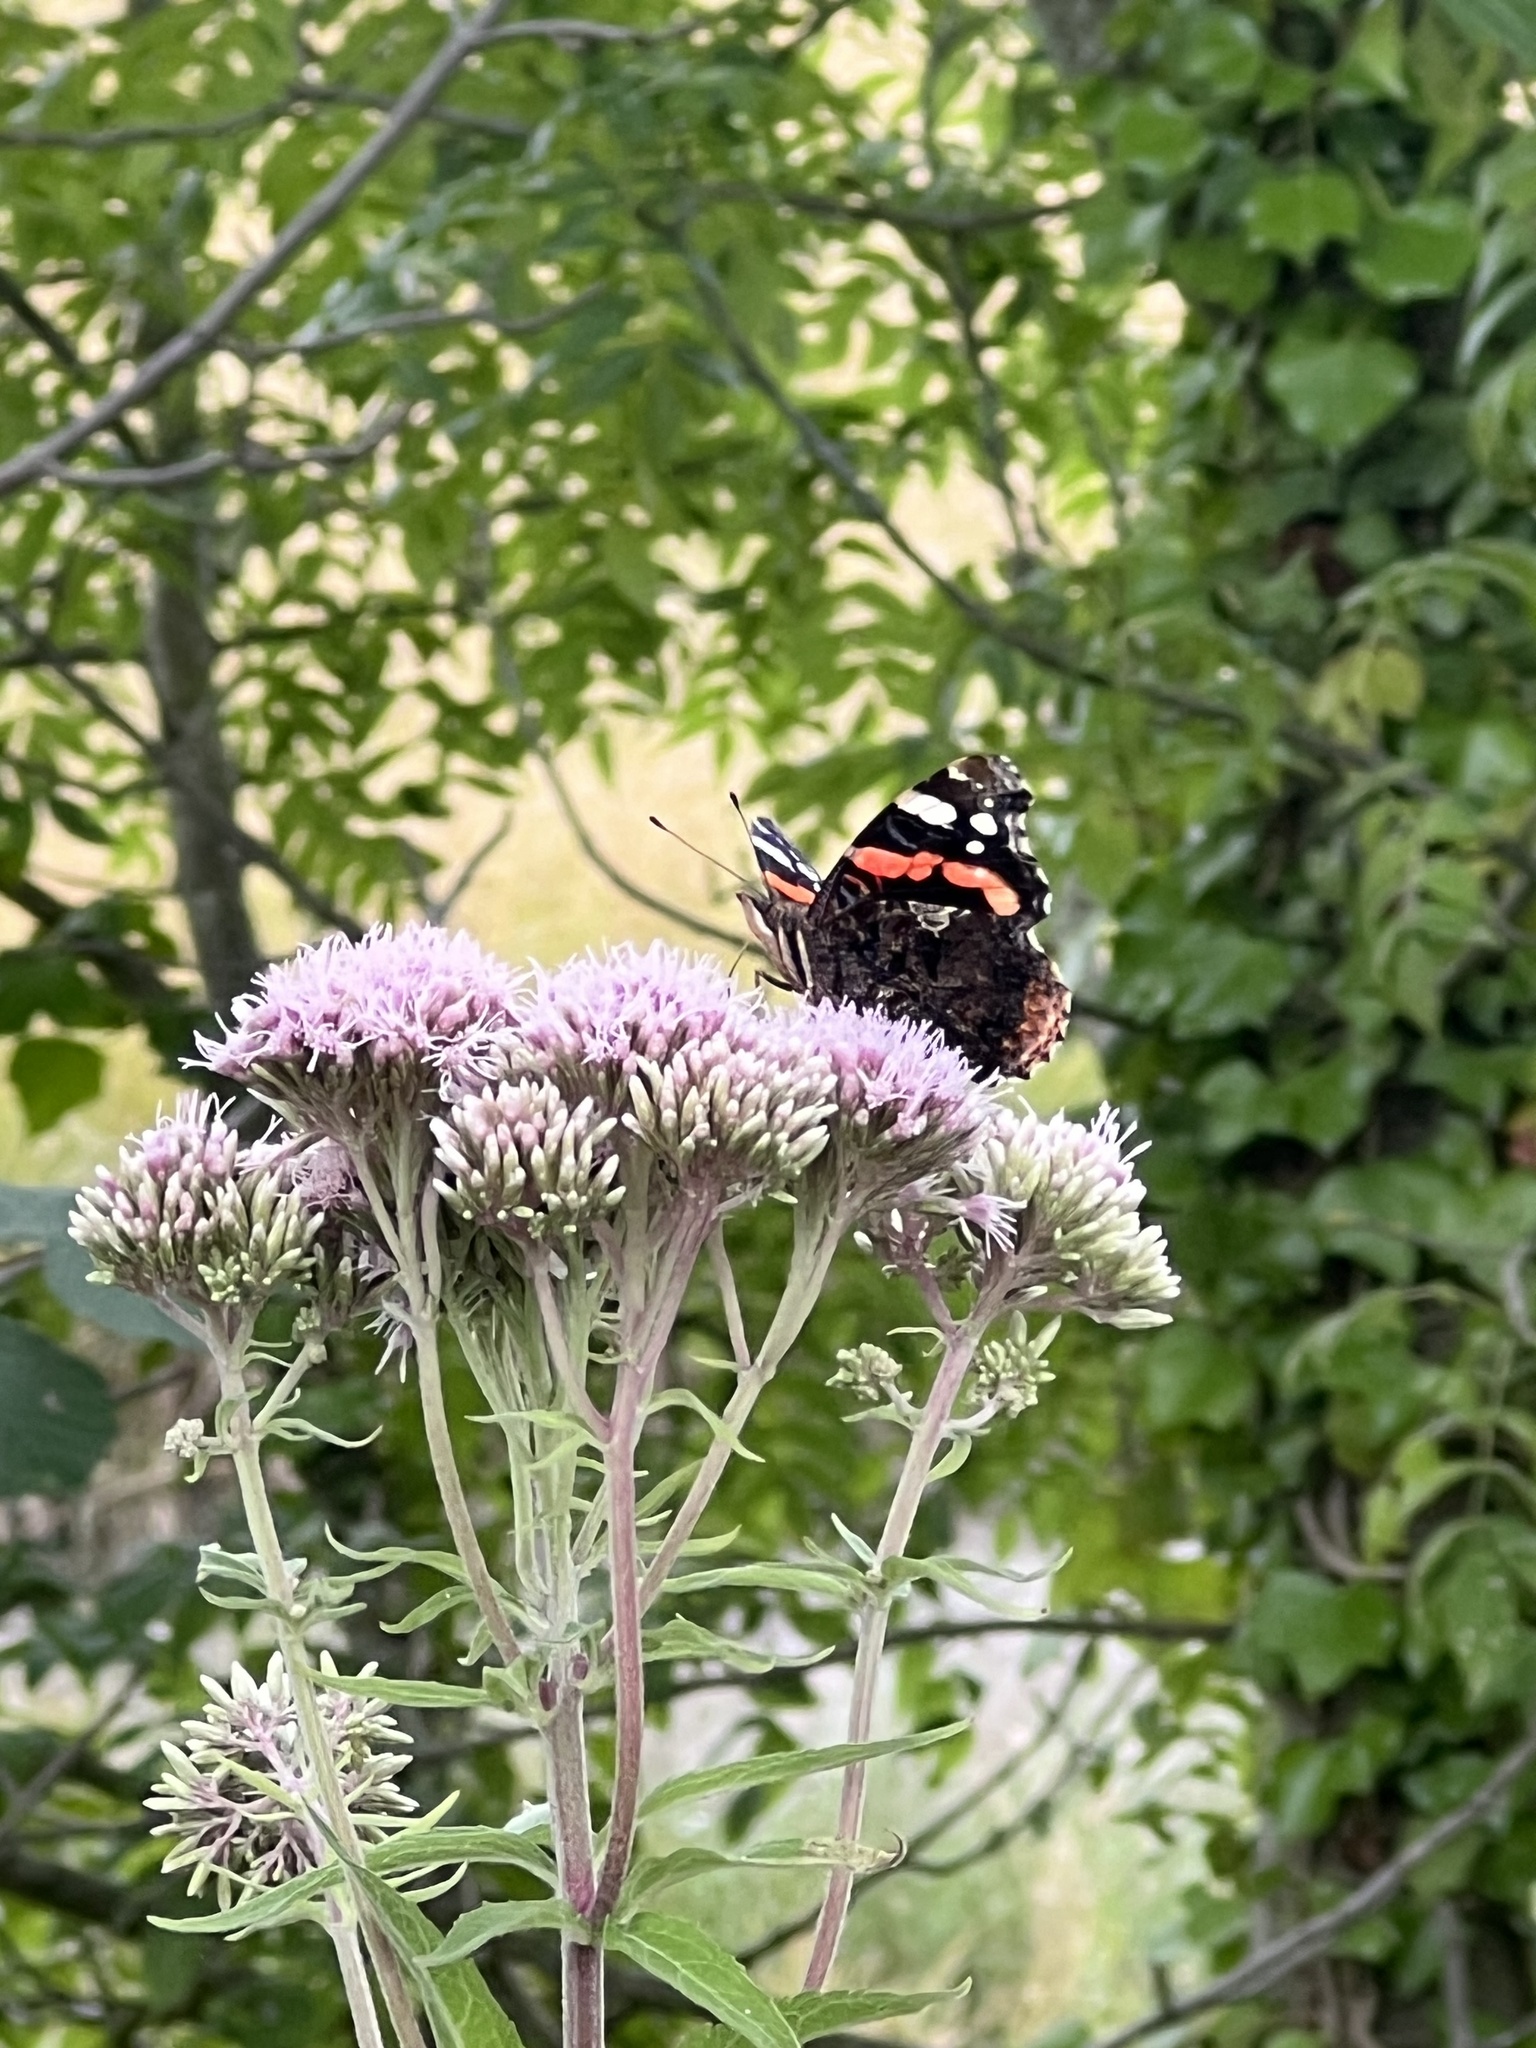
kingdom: Animalia
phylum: Arthropoda
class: Insecta
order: Lepidoptera
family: Nymphalidae
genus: Vanessa
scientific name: Vanessa atalanta
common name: Red admiral
